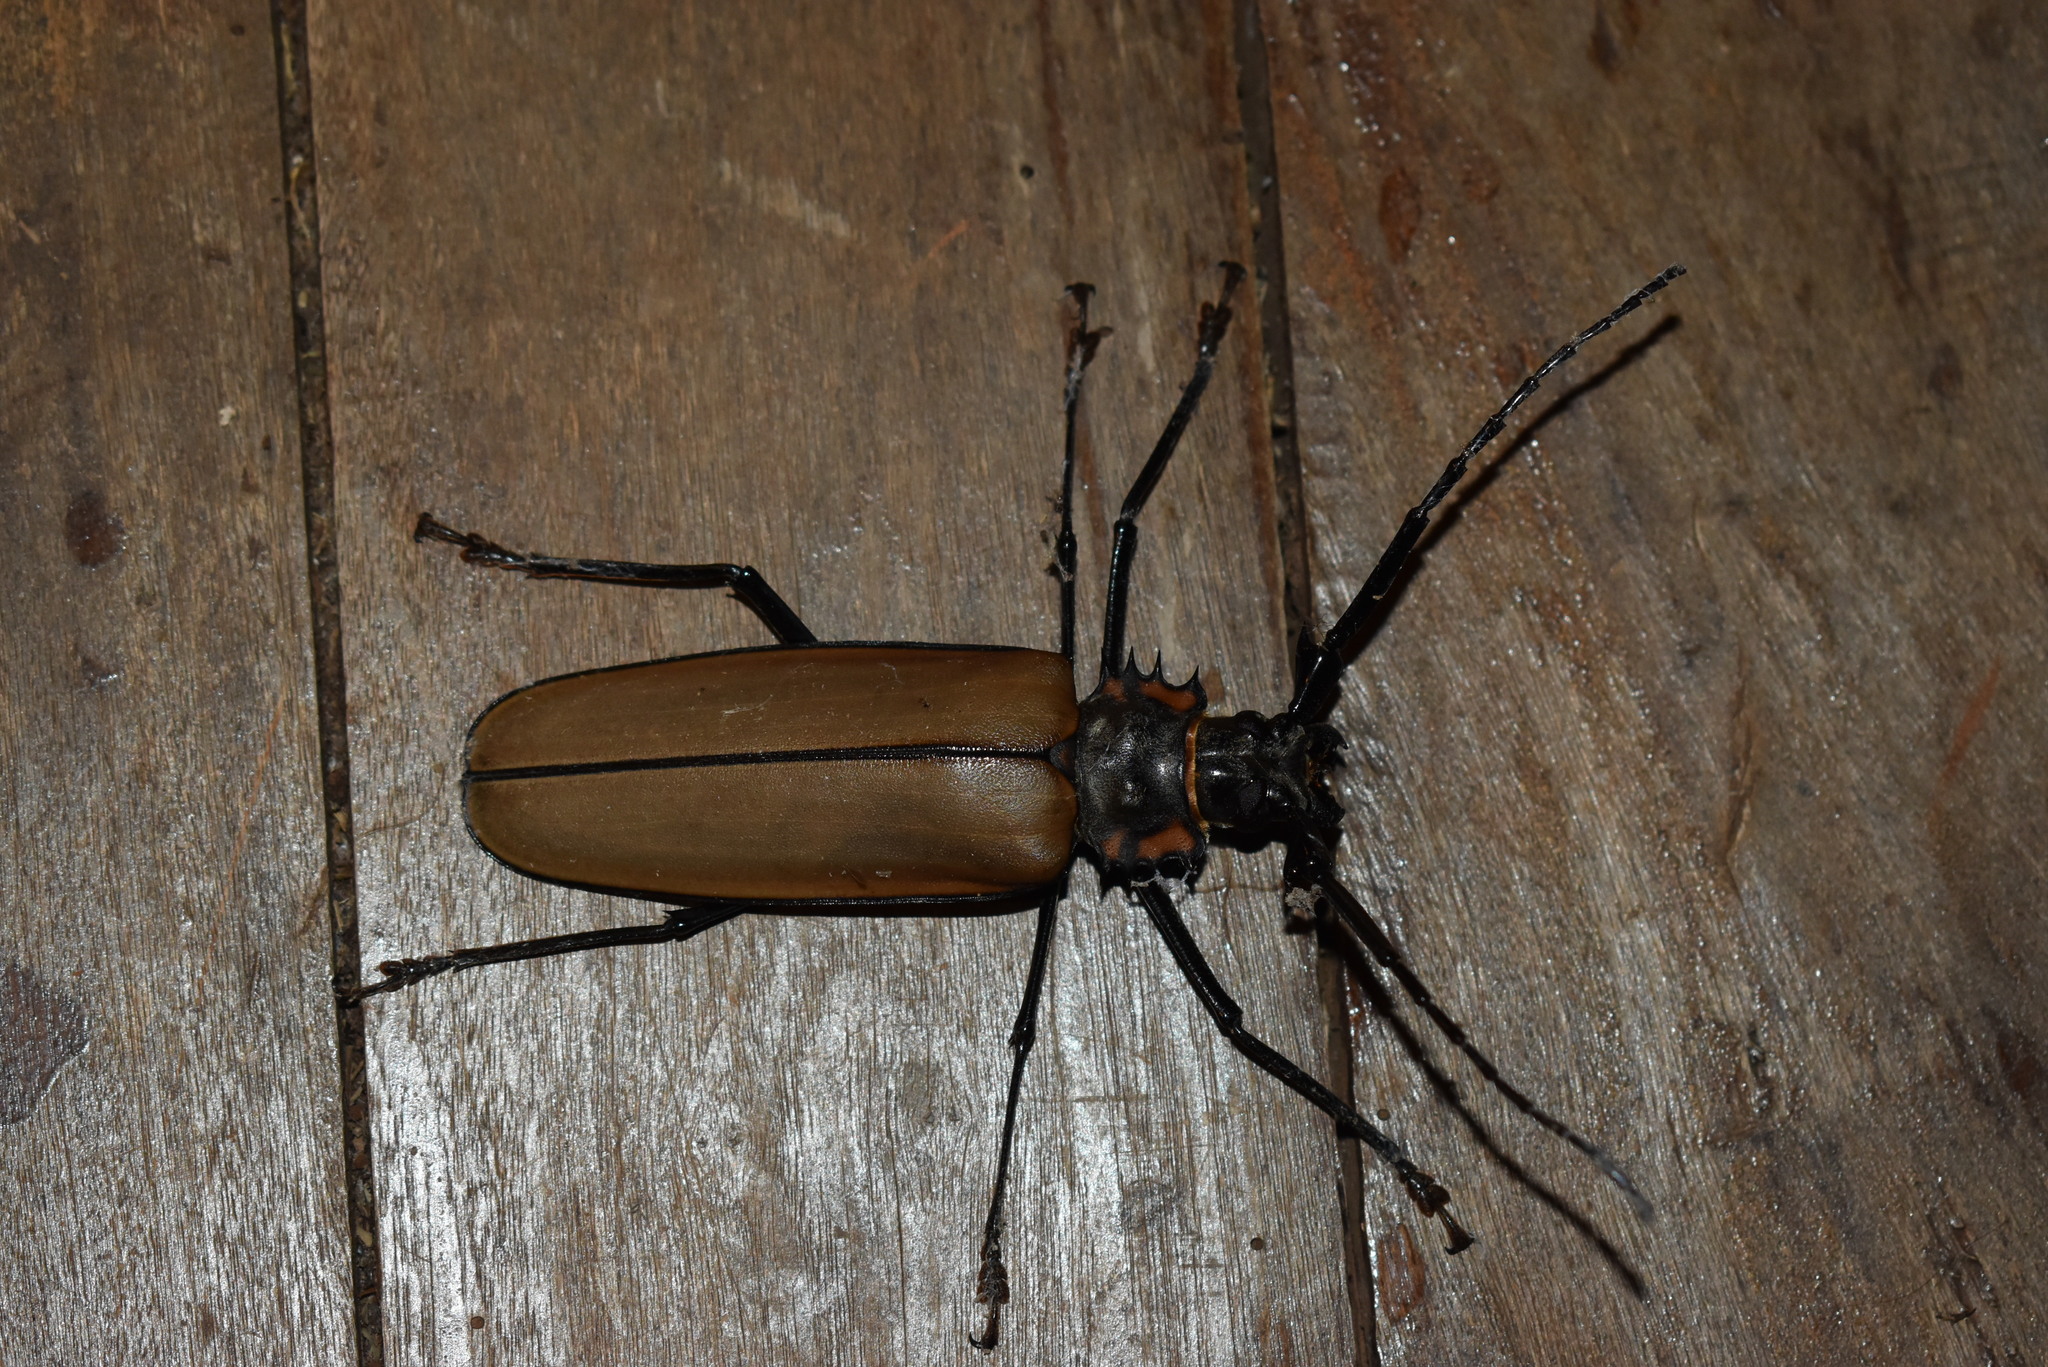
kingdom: Animalia
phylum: Arthropoda
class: Insecta
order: Coleoptera
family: Cerambycidae
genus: Enoplocerus
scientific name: Enoplocerus armillatus
